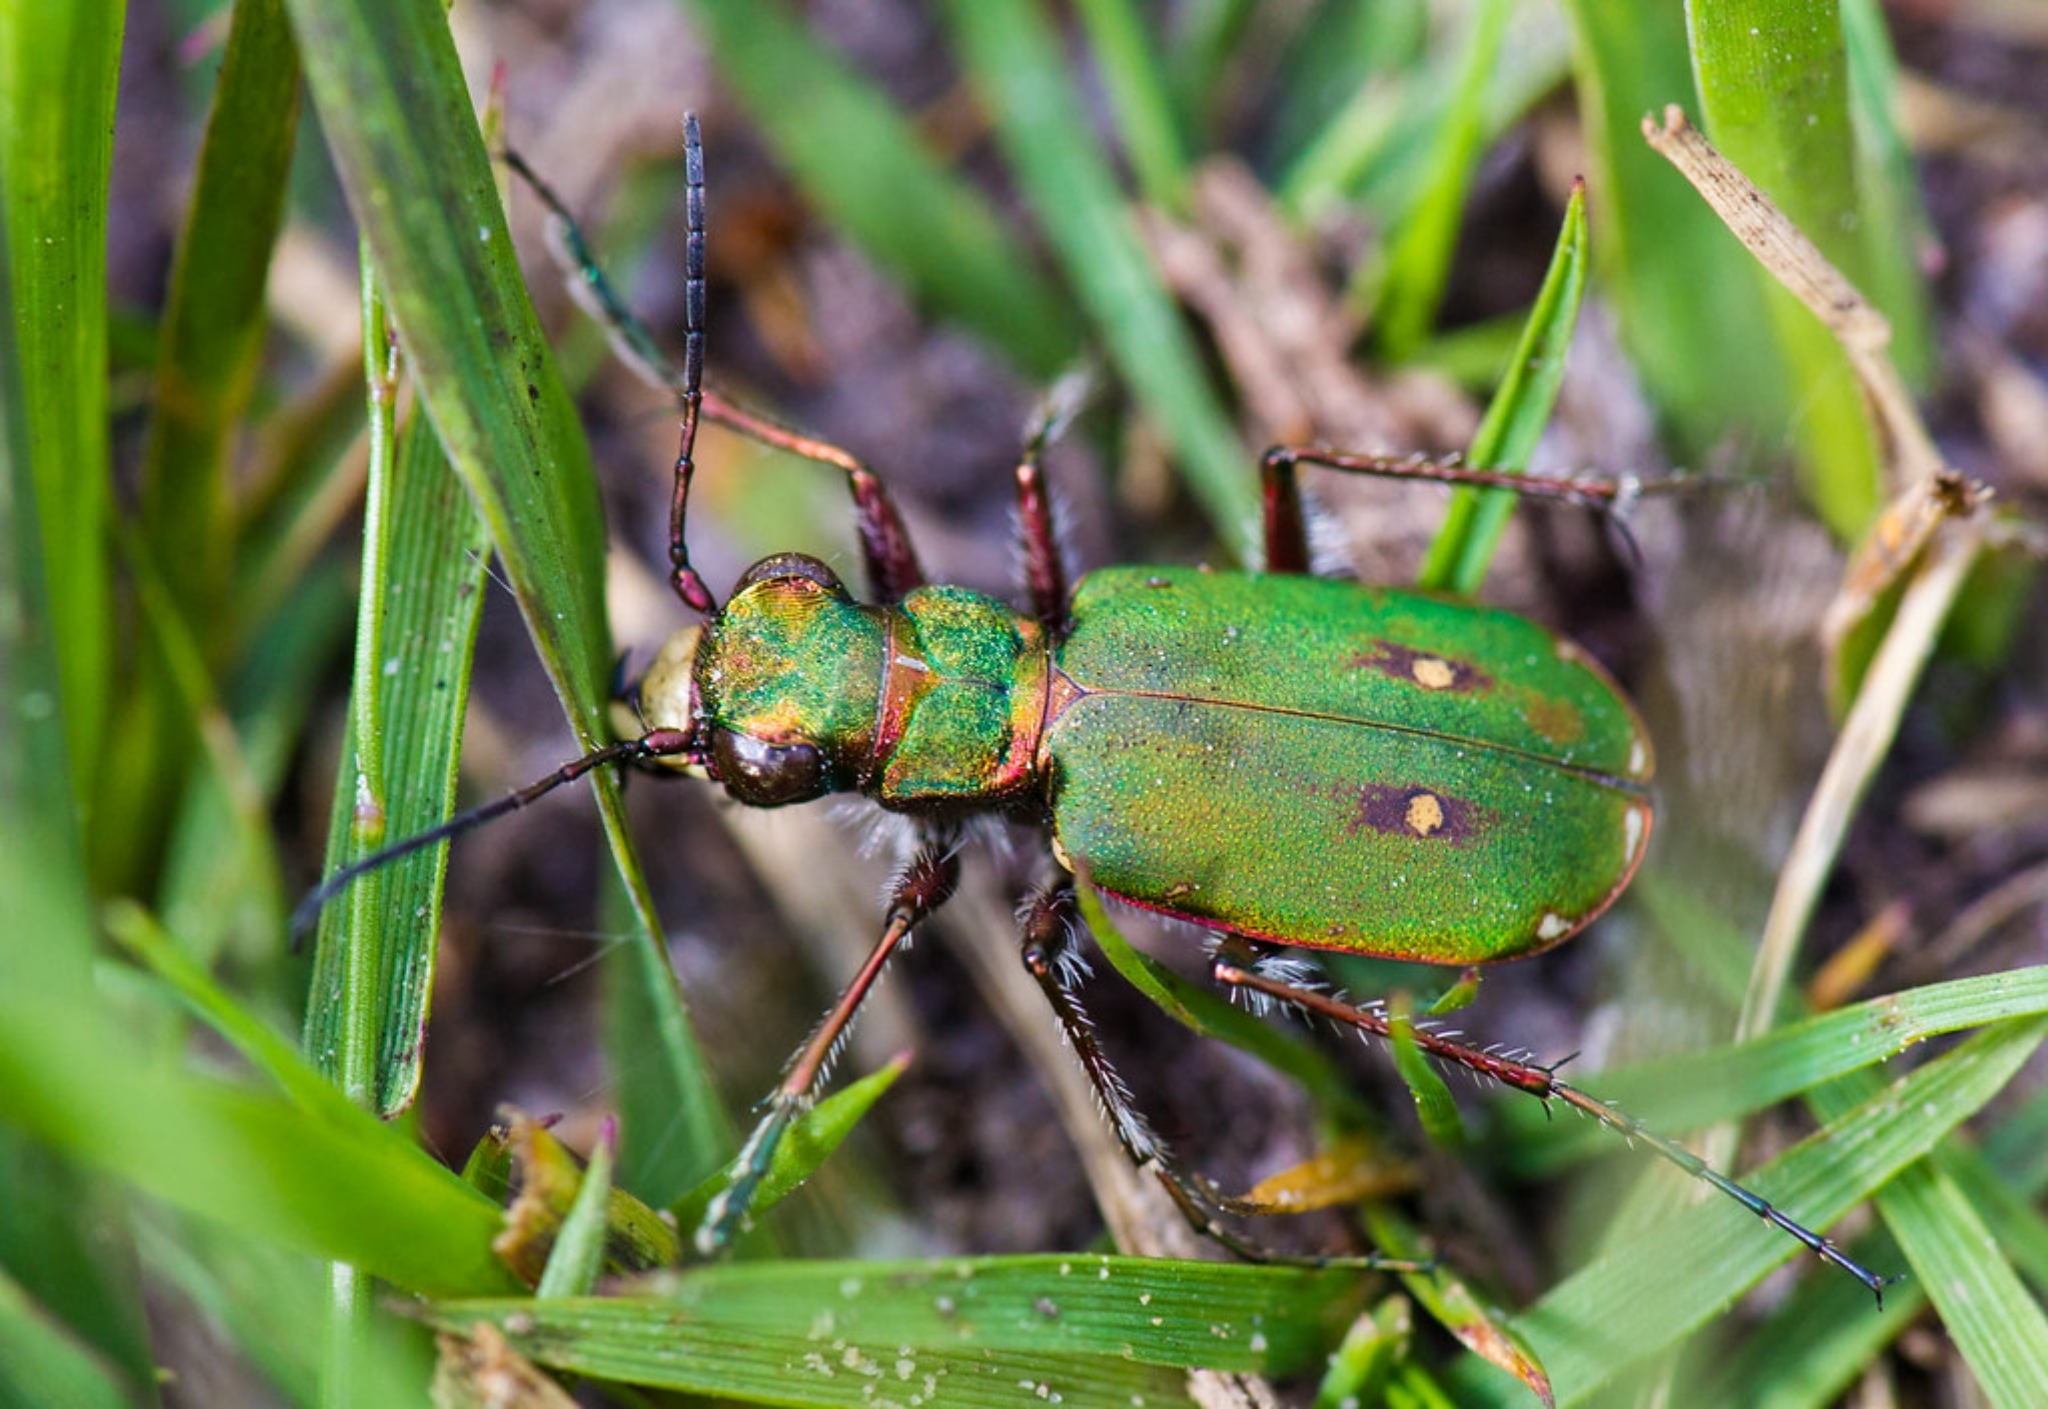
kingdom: Animalia
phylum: Arthropoda
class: Insecta
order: Coleoptera
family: Carabidae
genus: Cicindela
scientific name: Cicindela campestris
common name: Common tiger beetle
